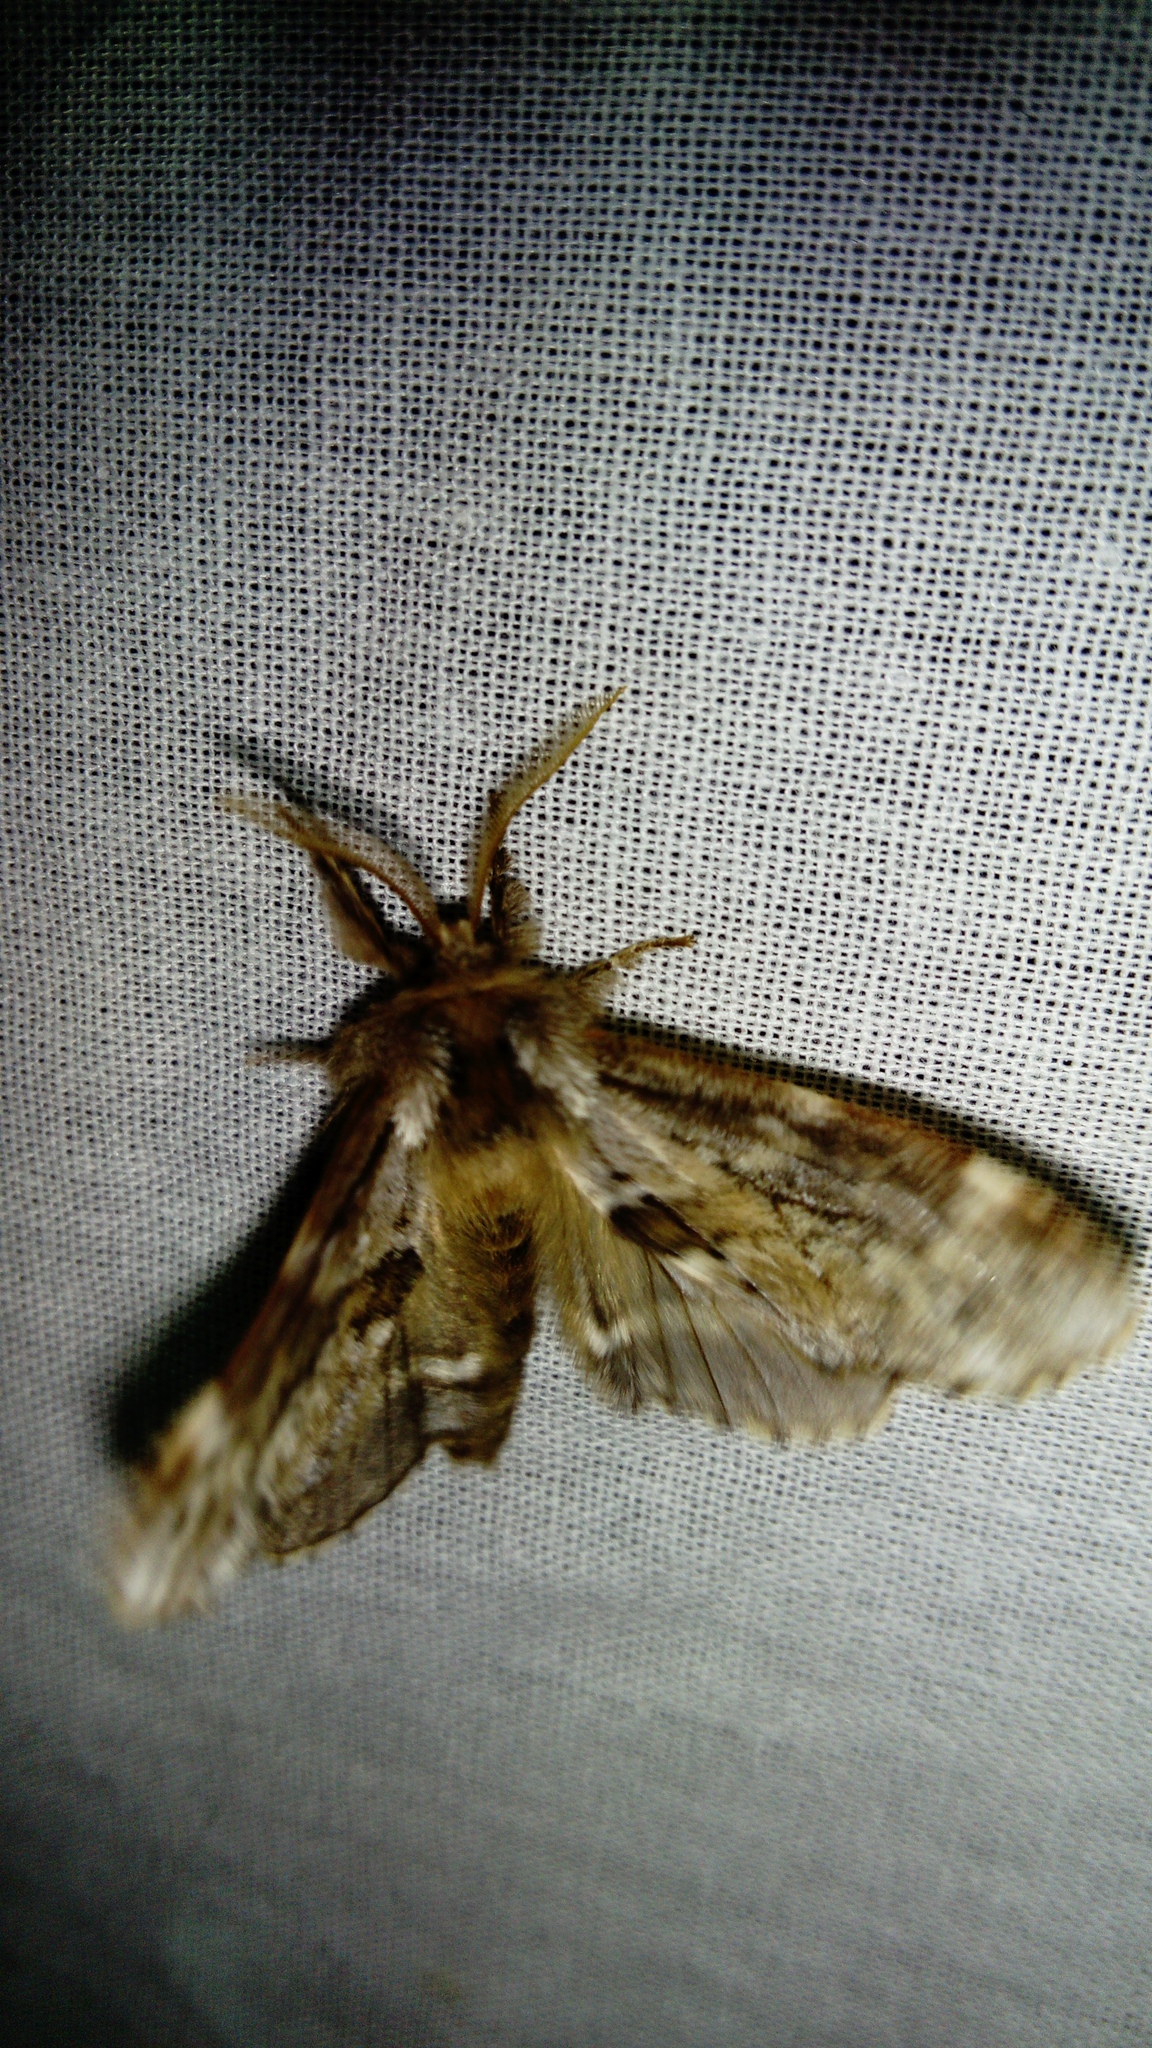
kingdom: Animalia
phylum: Arthropoda
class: Insecta
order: Lepidoptera
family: Notodontidae
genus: Odontosia
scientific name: Odontosia sieversii
